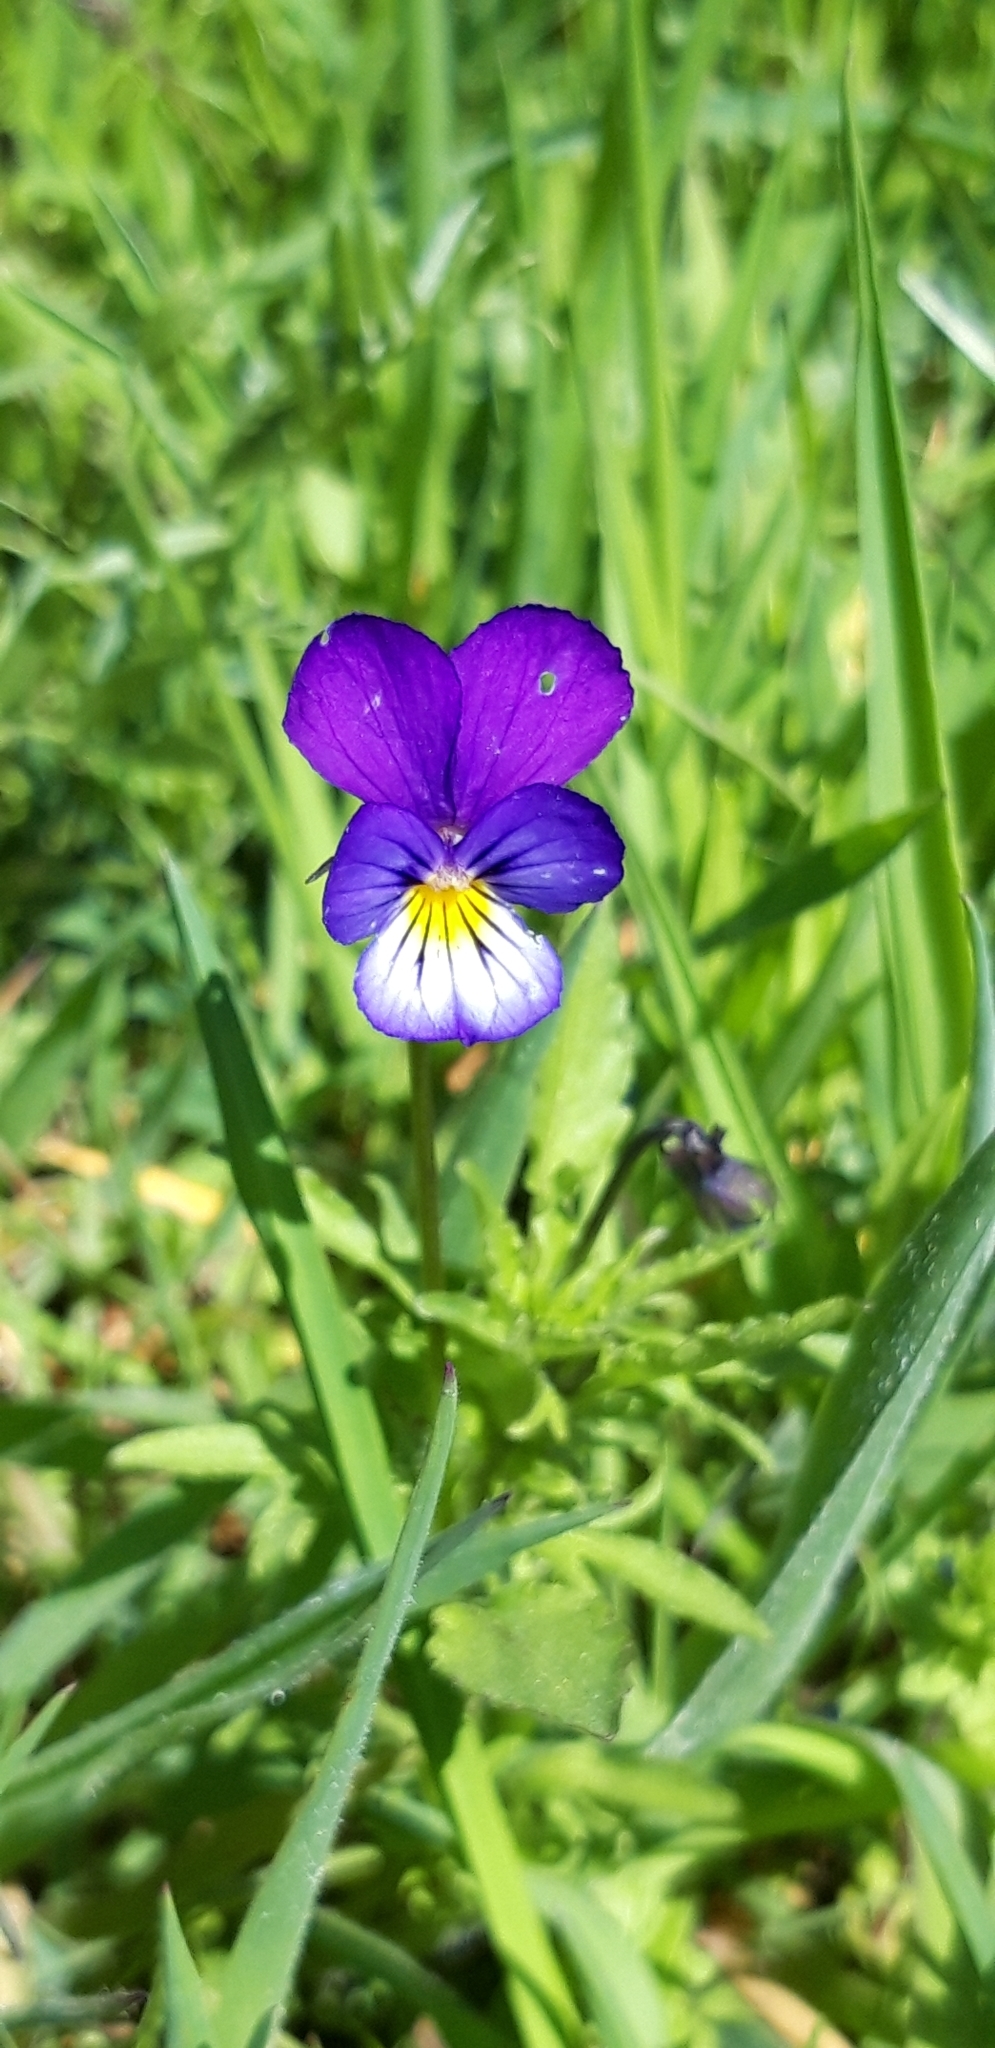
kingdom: Plantae
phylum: Tracheophyta
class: Magnoliopsida
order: Malpighiales
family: Violaceae
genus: Viola
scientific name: Viola tricolor
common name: Pansy
